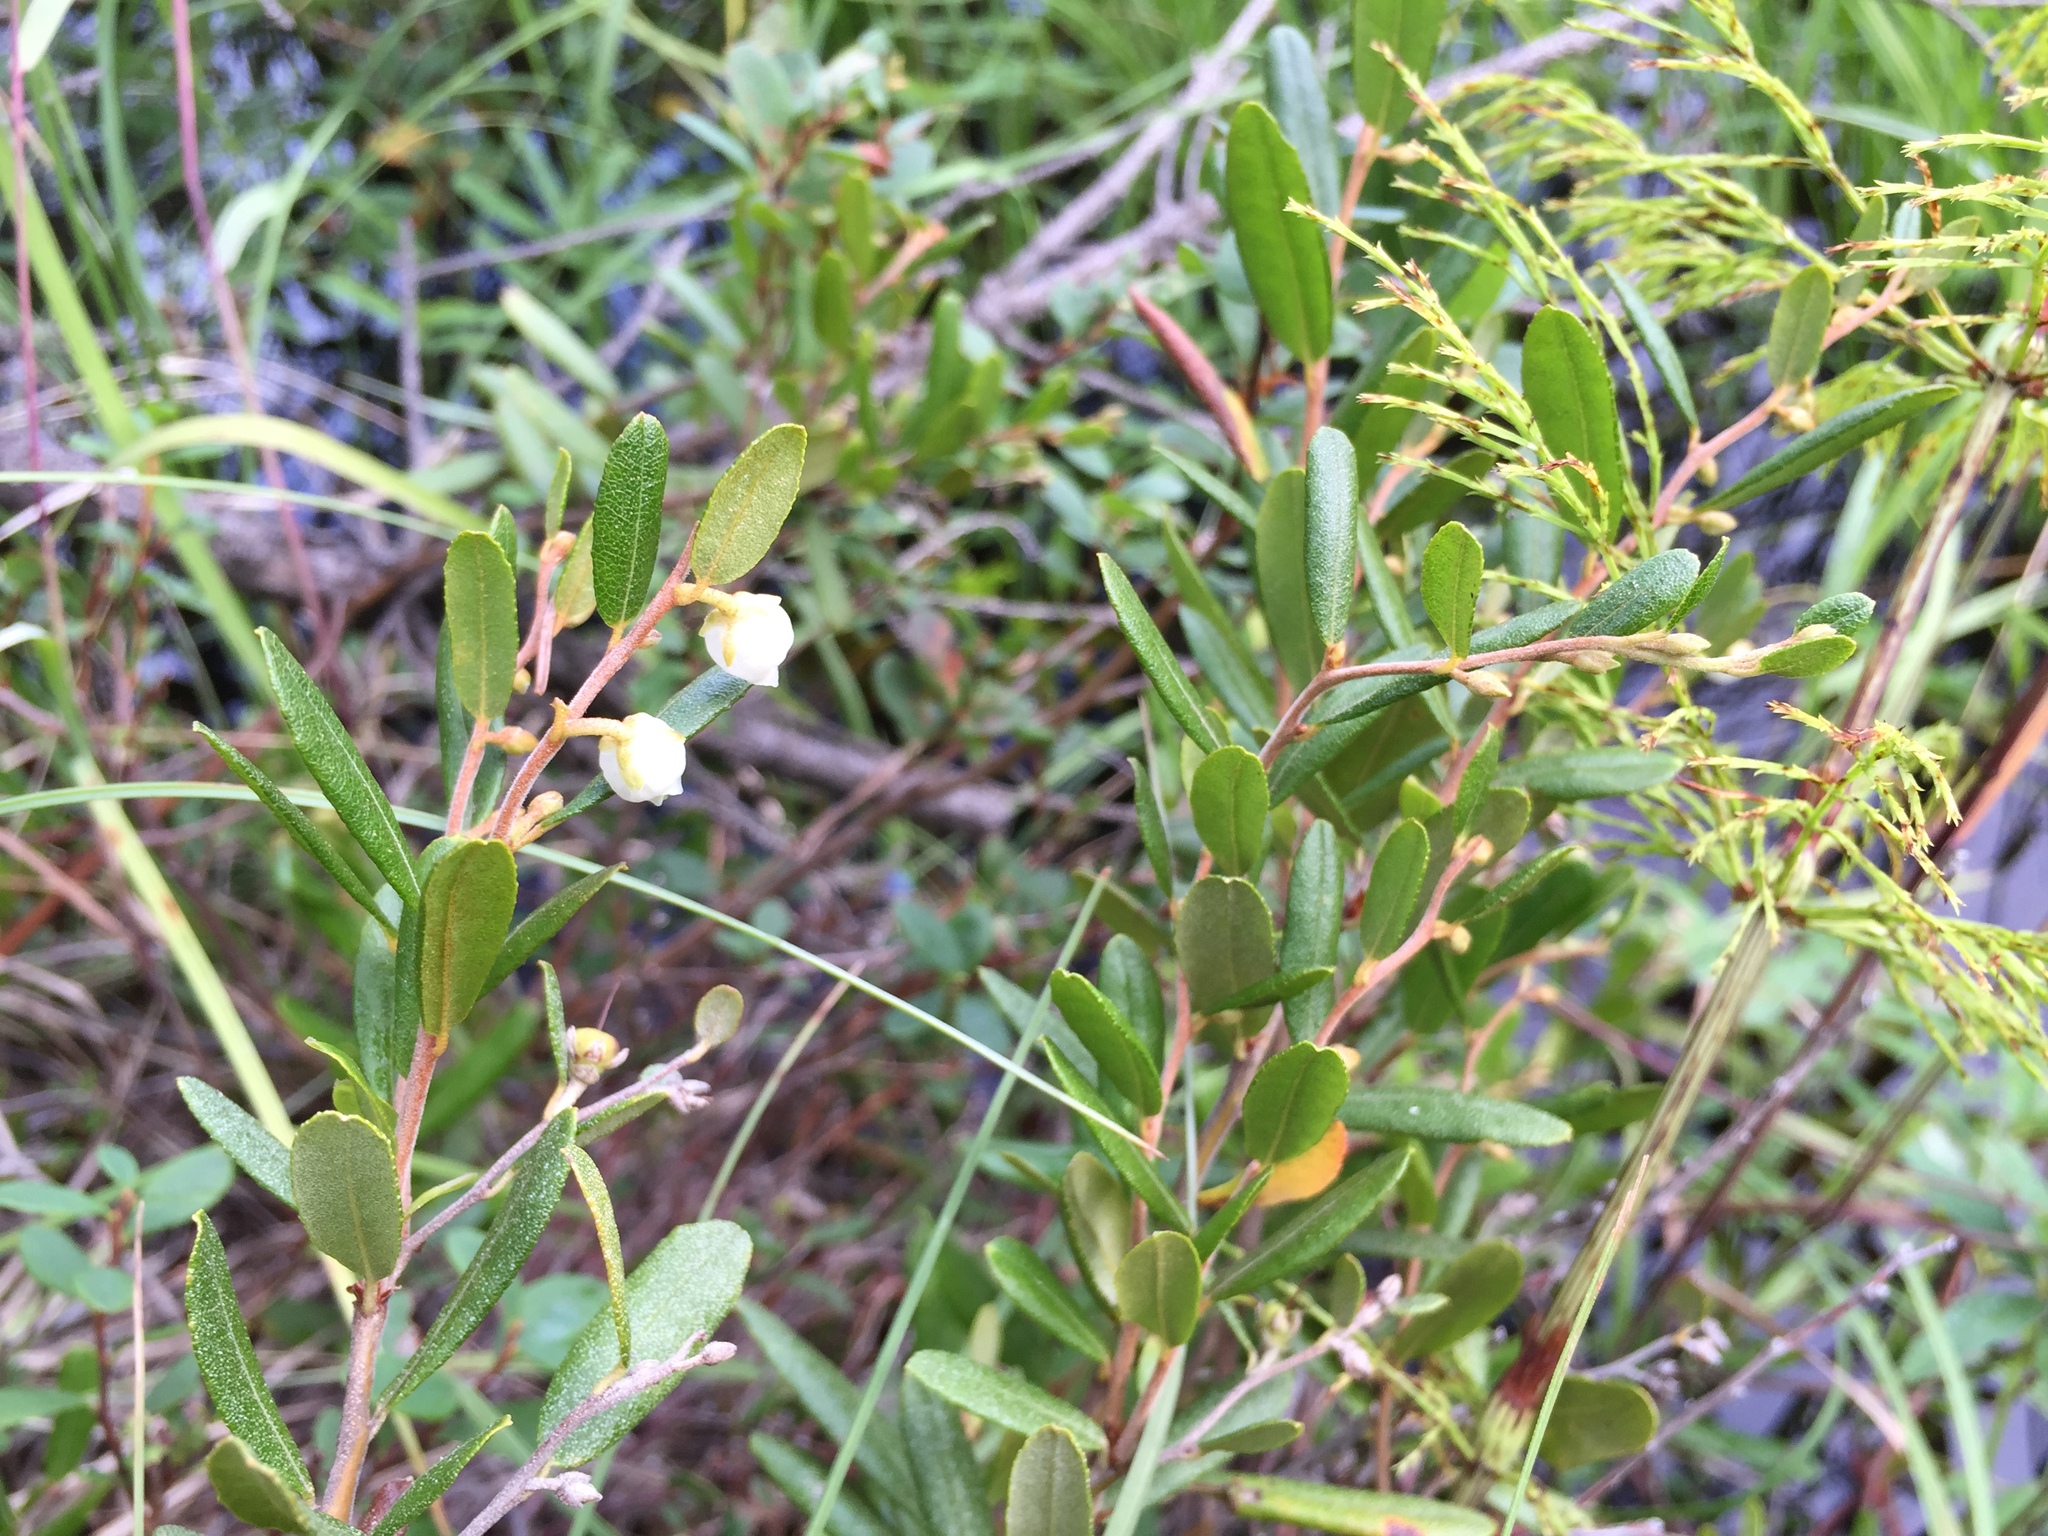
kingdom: Plantae
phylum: Tracheophyta
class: Magnoliopsida
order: Ericales
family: Ericaceae
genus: Chamaedaphne
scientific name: Chamaedaphne calyculata
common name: Leatherleaf
